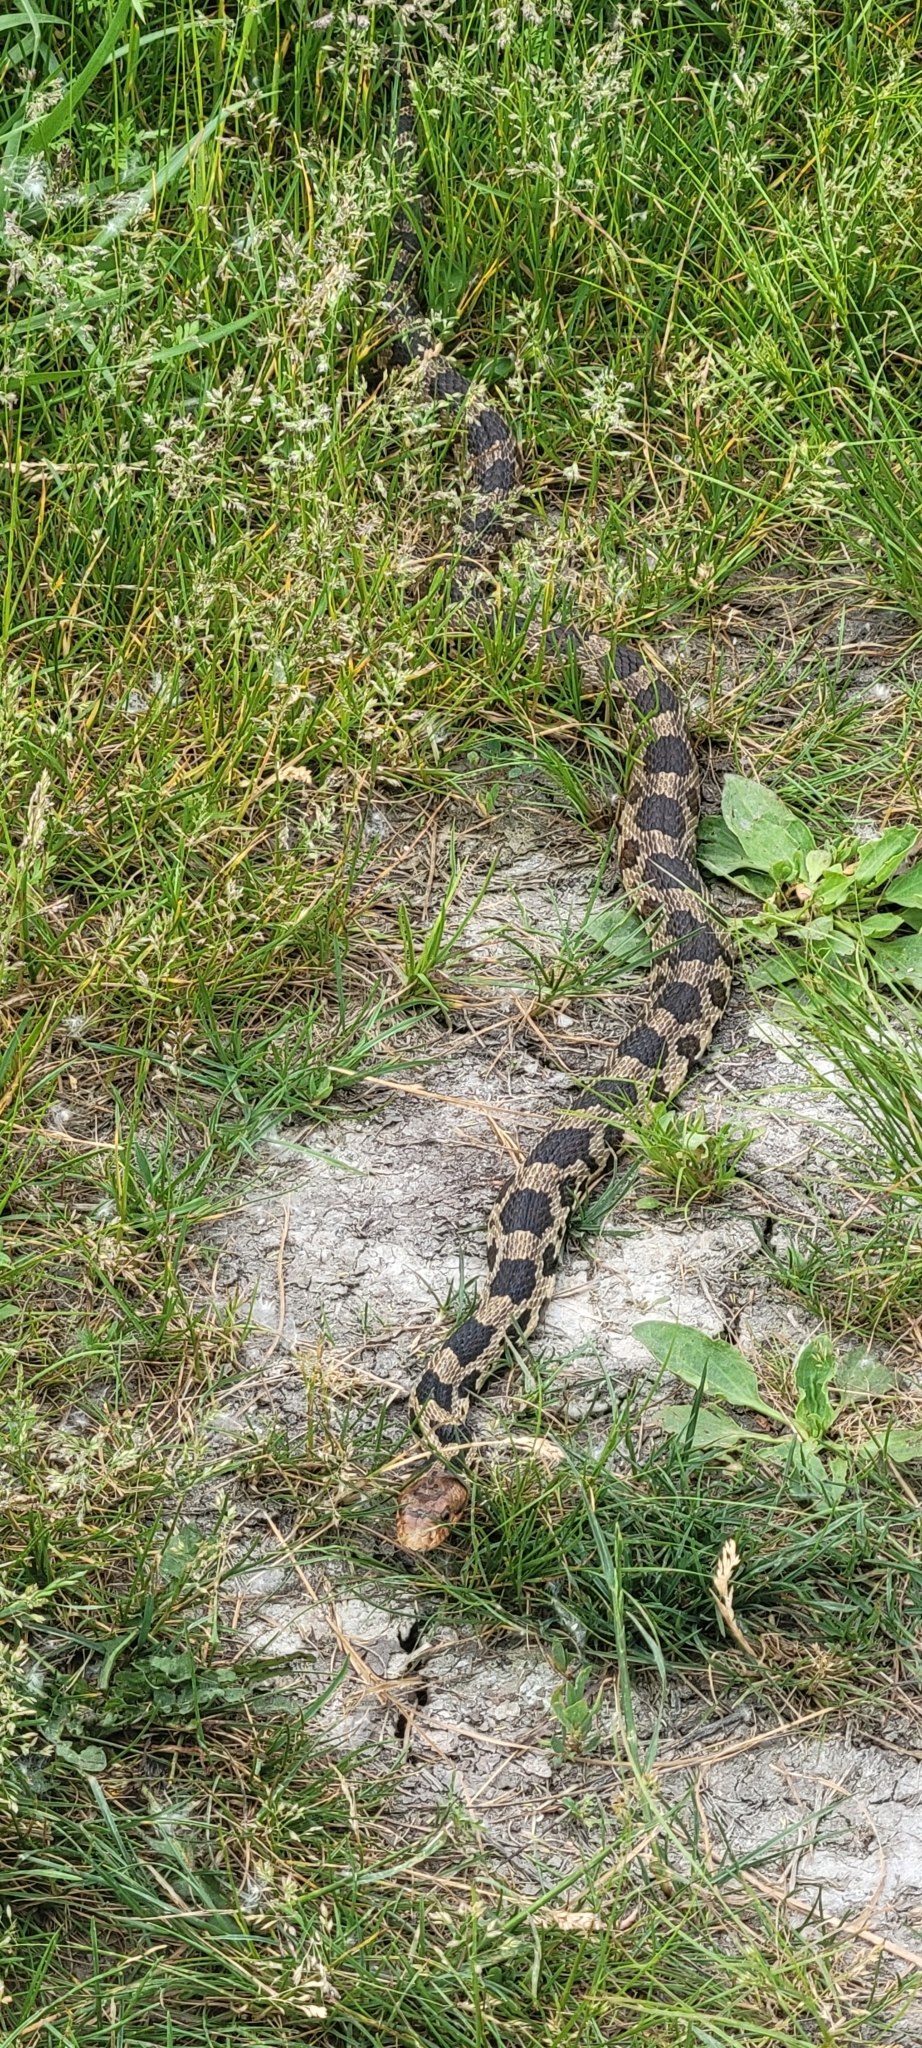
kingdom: Animalia
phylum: Chordata
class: Squamata
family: Colubridae
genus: Pantherophis
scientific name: Pantherophis vulpinus
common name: Eastern fox snake
